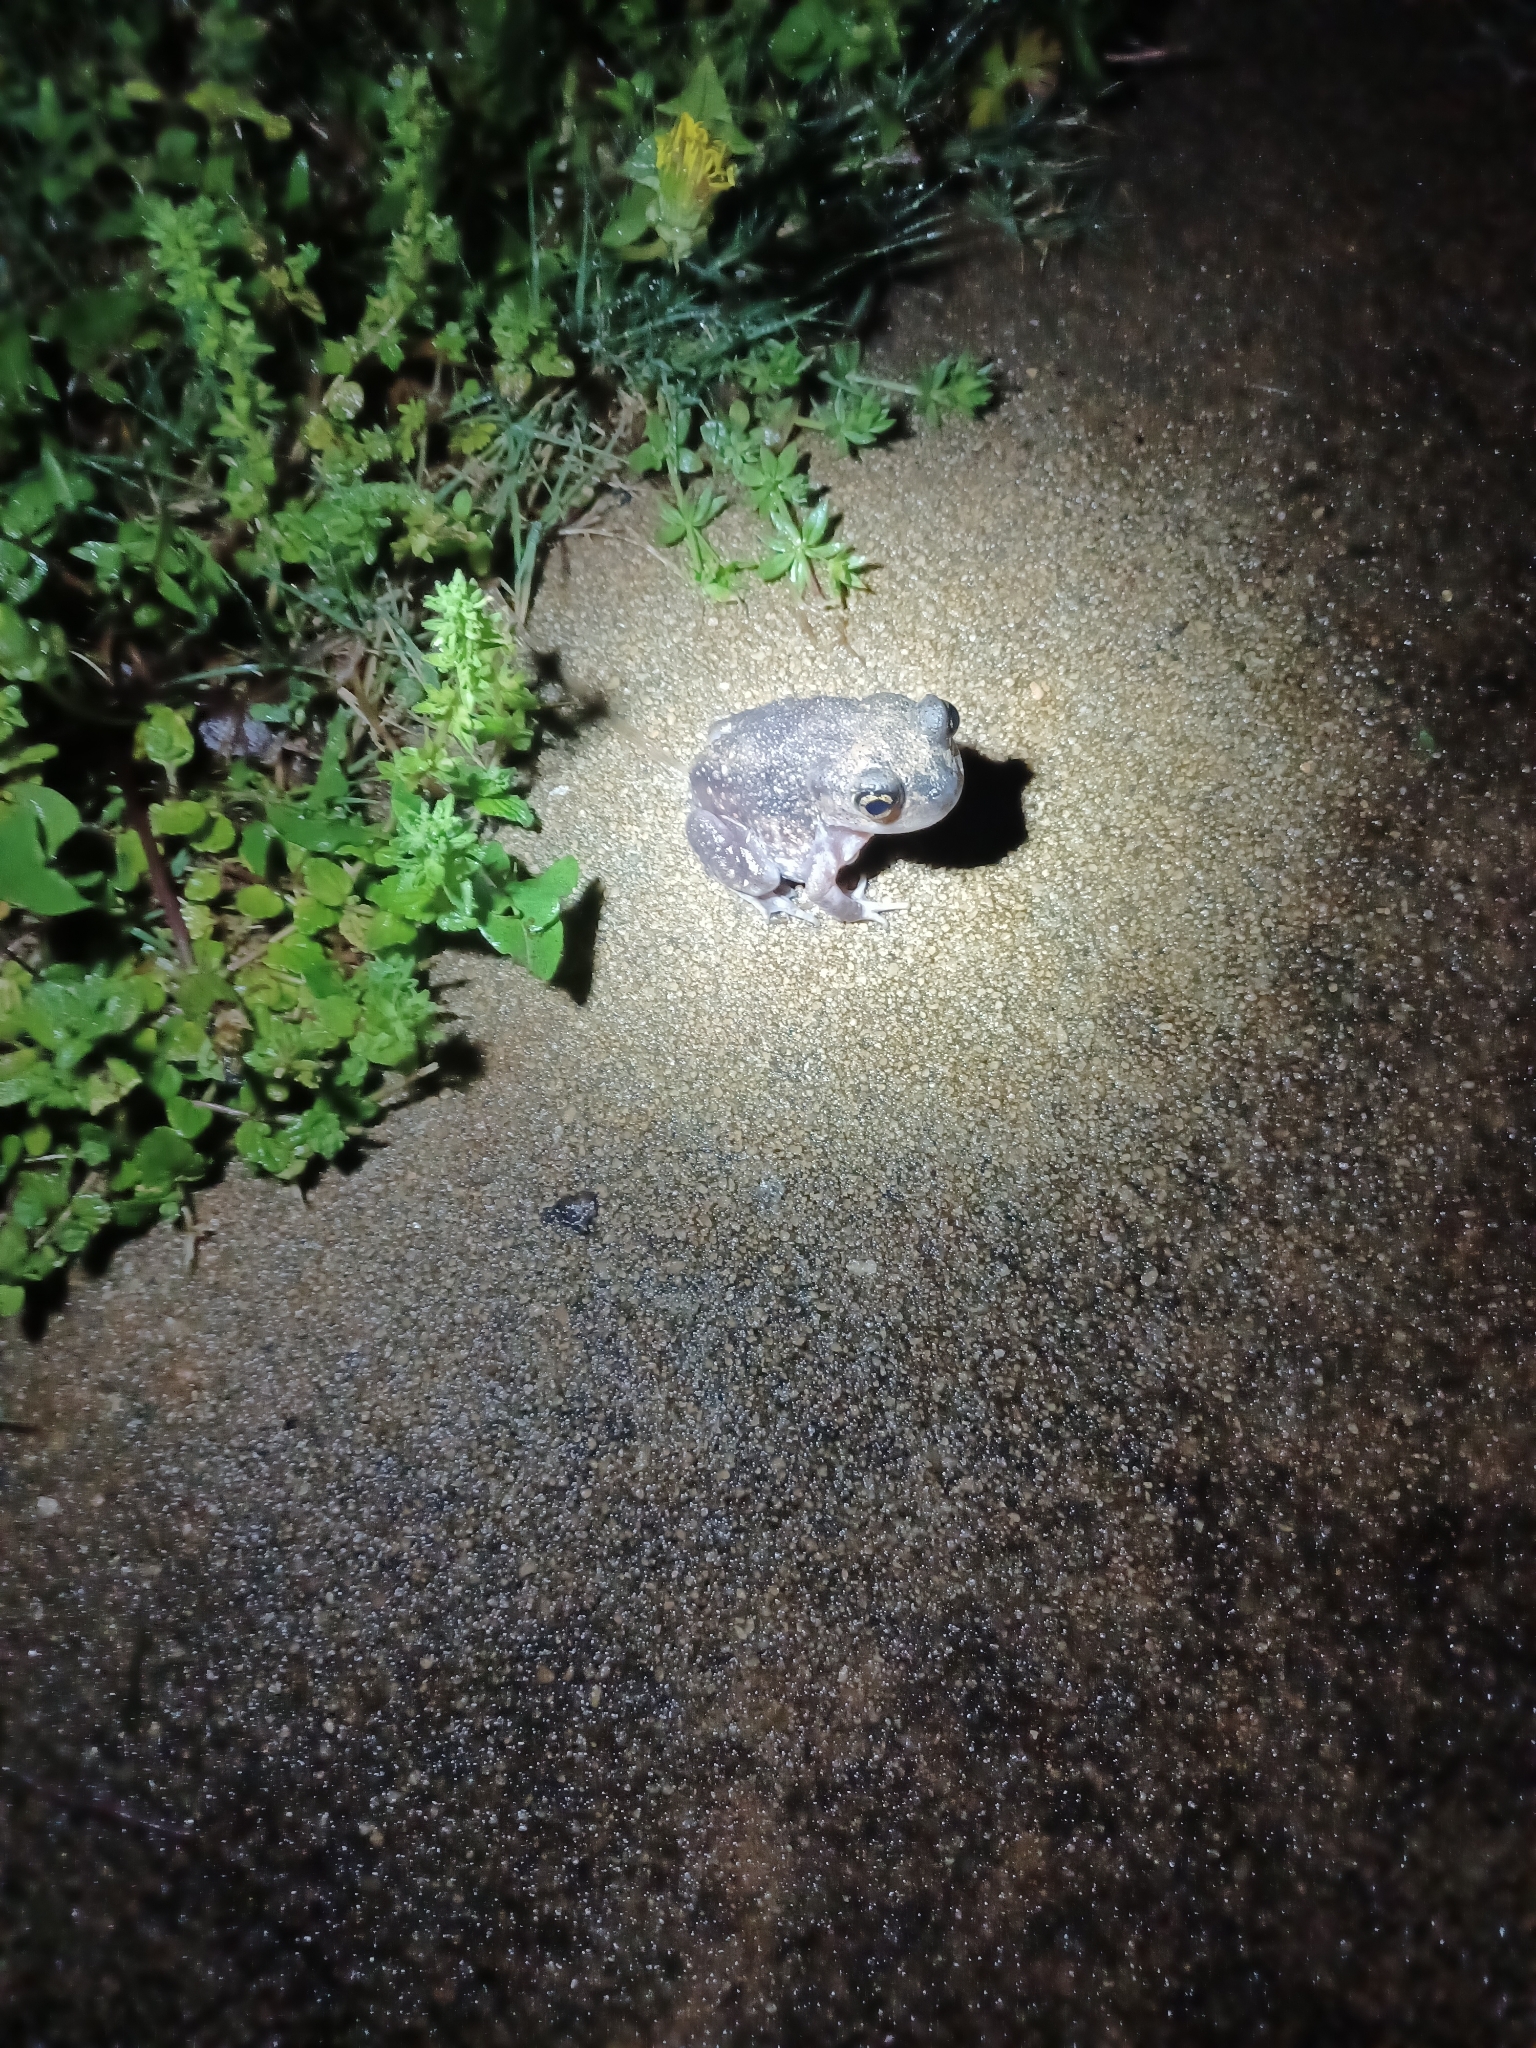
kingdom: Animalia
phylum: Chordata
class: Amphibia
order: Anura
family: Scaphiopodidae
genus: Scaphiopus
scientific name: Scaphiopus holbrookii
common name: Eastern spadefoot toad
